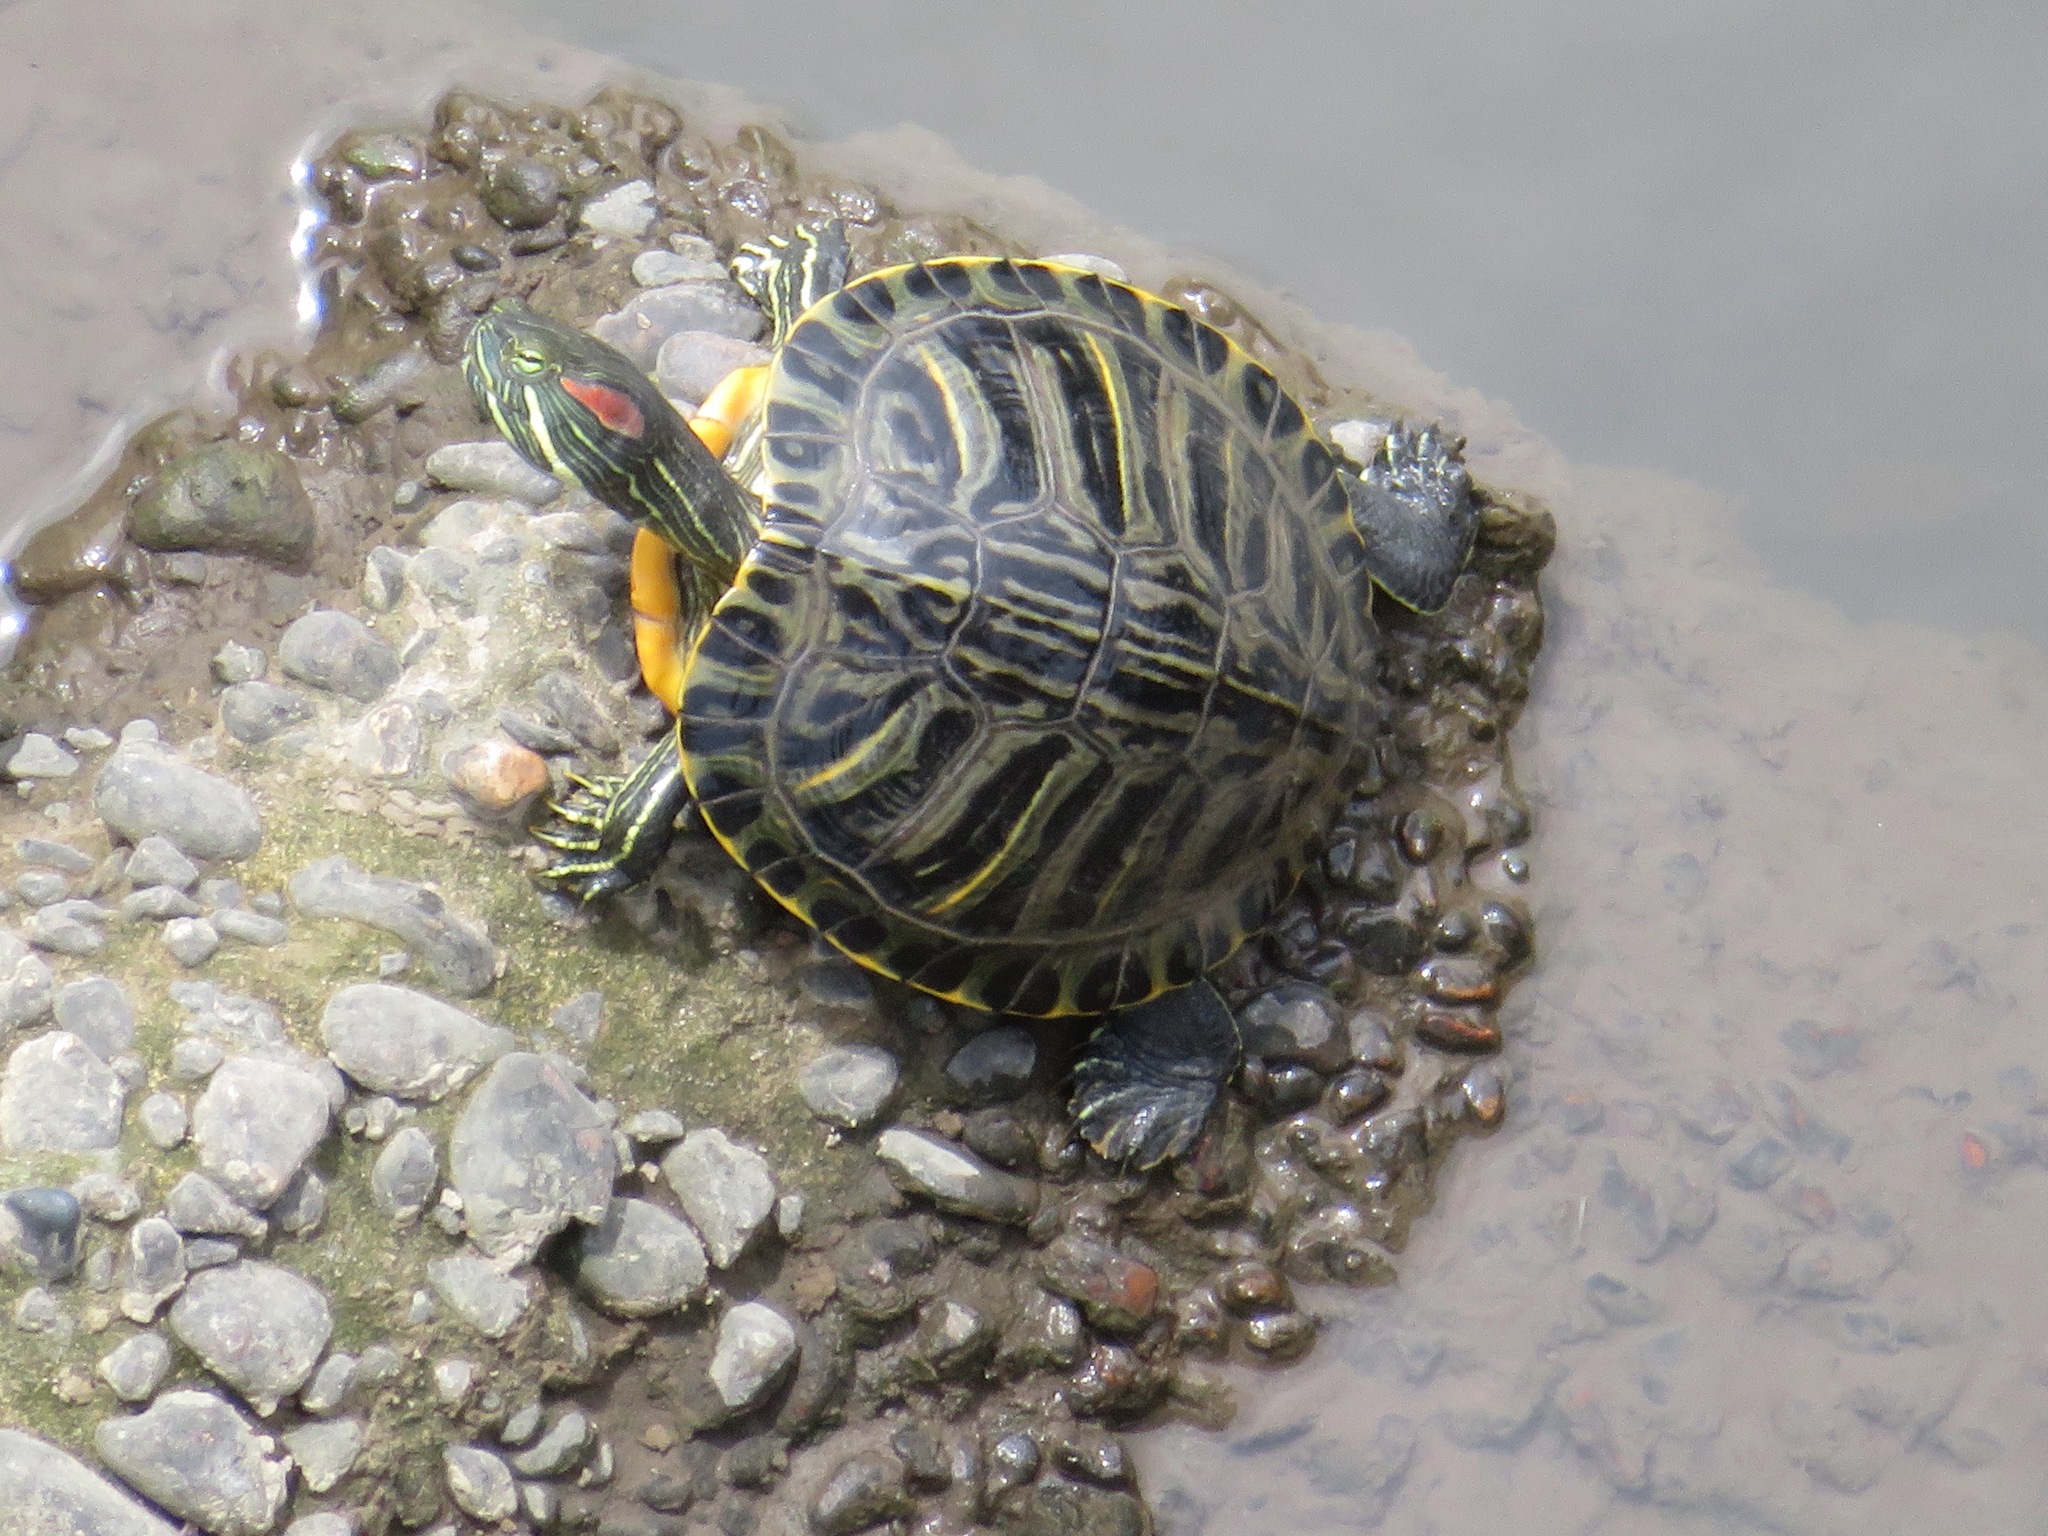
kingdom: Animalia
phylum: Chordata
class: Testudines
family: Emydidae
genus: Trachemys
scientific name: Trachemys scripta
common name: Slider
